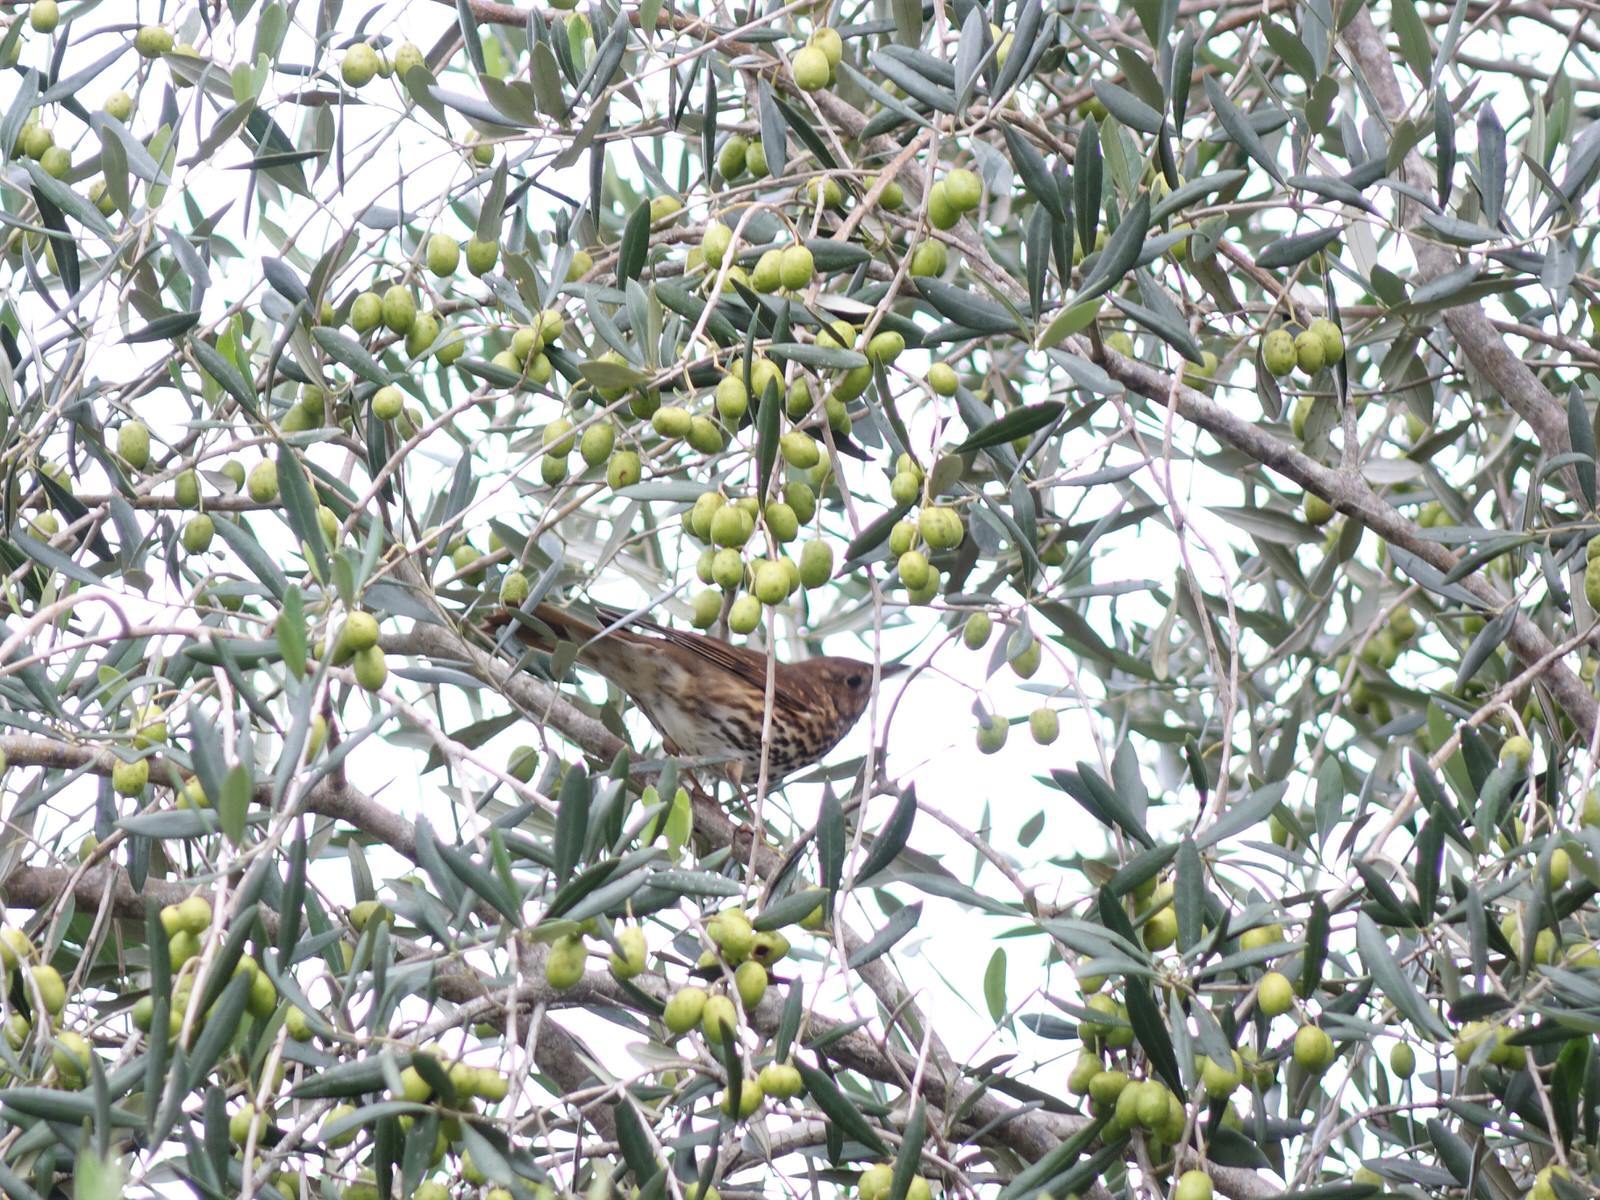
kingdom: Animalia
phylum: Chordata
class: Aves
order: Passeriformes
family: Turdidae
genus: Turdus
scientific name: Turdus philomelos
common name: Song thrush
